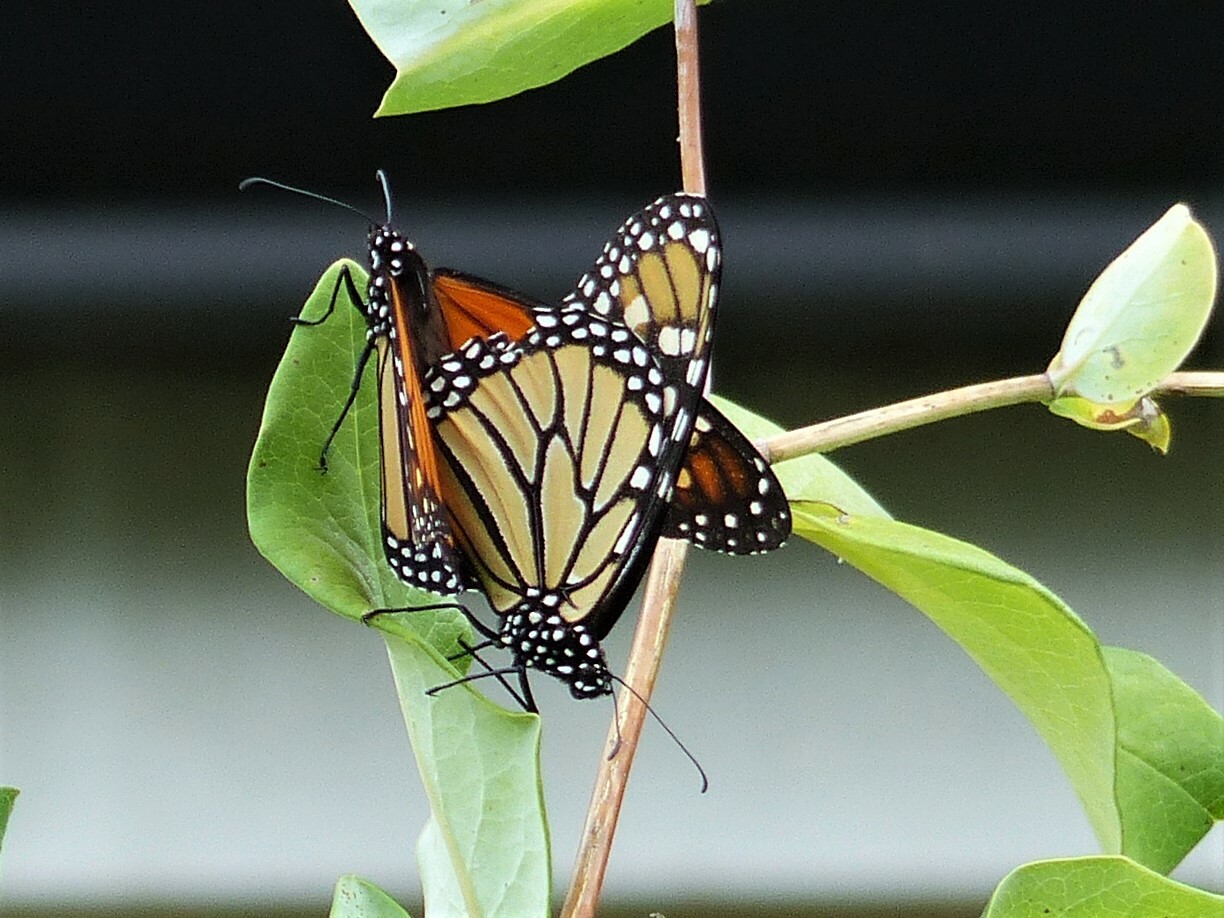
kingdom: Animalia
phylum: Arthropoda
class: Insecta
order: Lepidoptera
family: Nymphalidae
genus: Danaus
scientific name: Danaus plexippus
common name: Monarch
